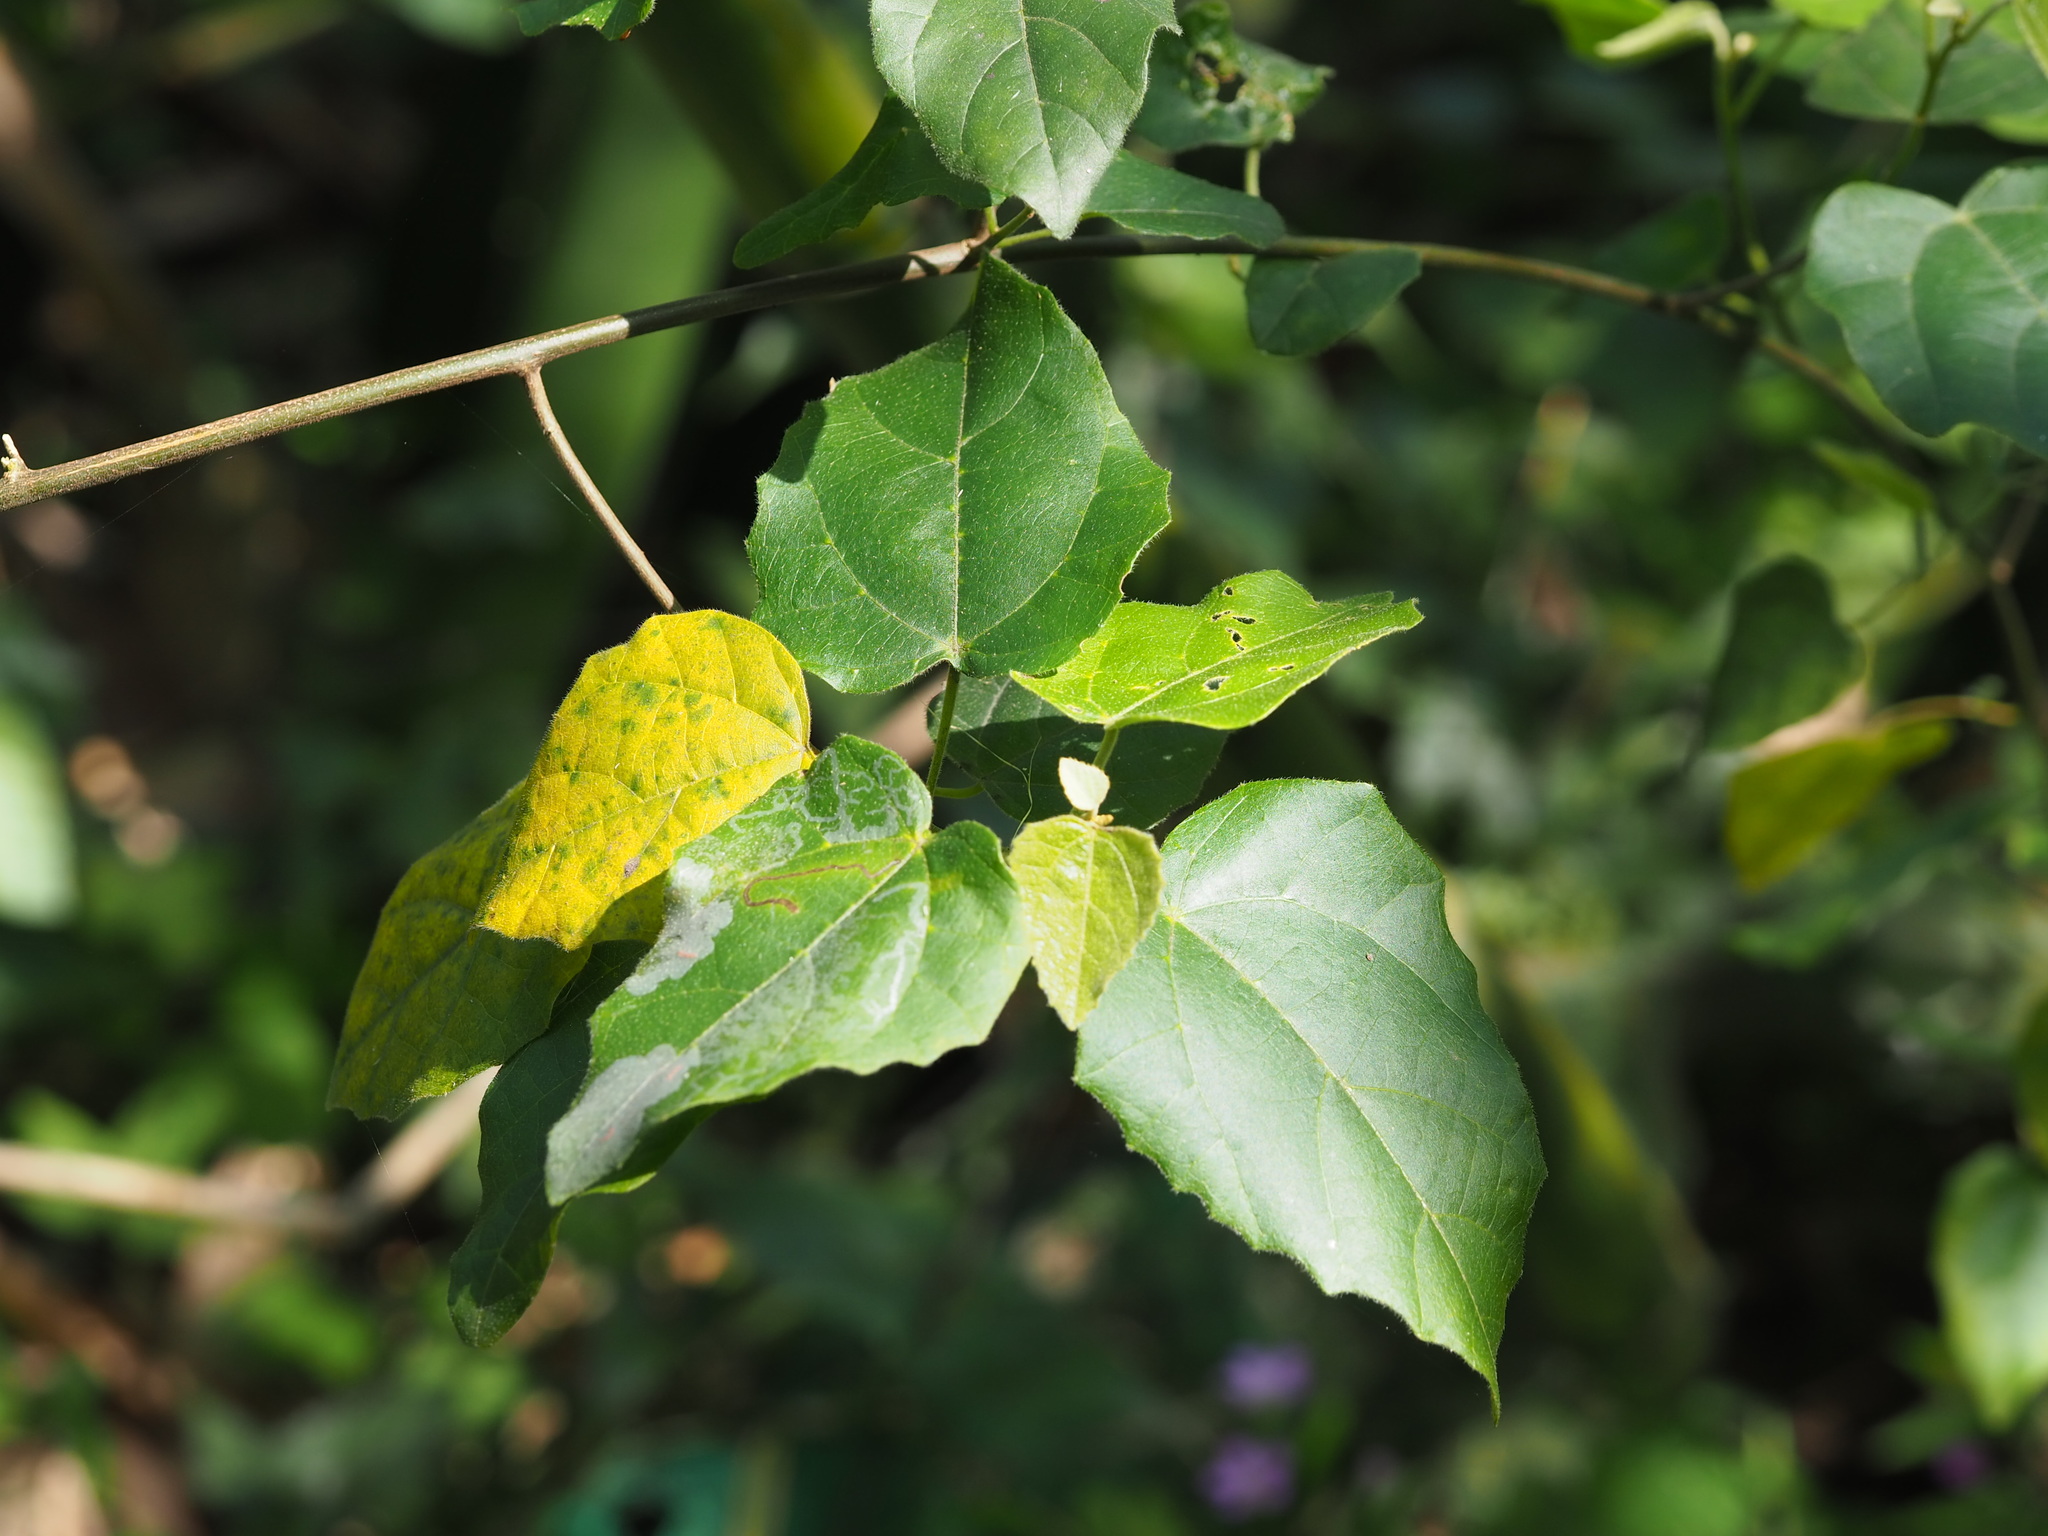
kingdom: Plantae
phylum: Tracheophyta
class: Magnoliopsida
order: Malpighiales
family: Euphorbiaceae
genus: Mallotus
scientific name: Mallotus repandus
